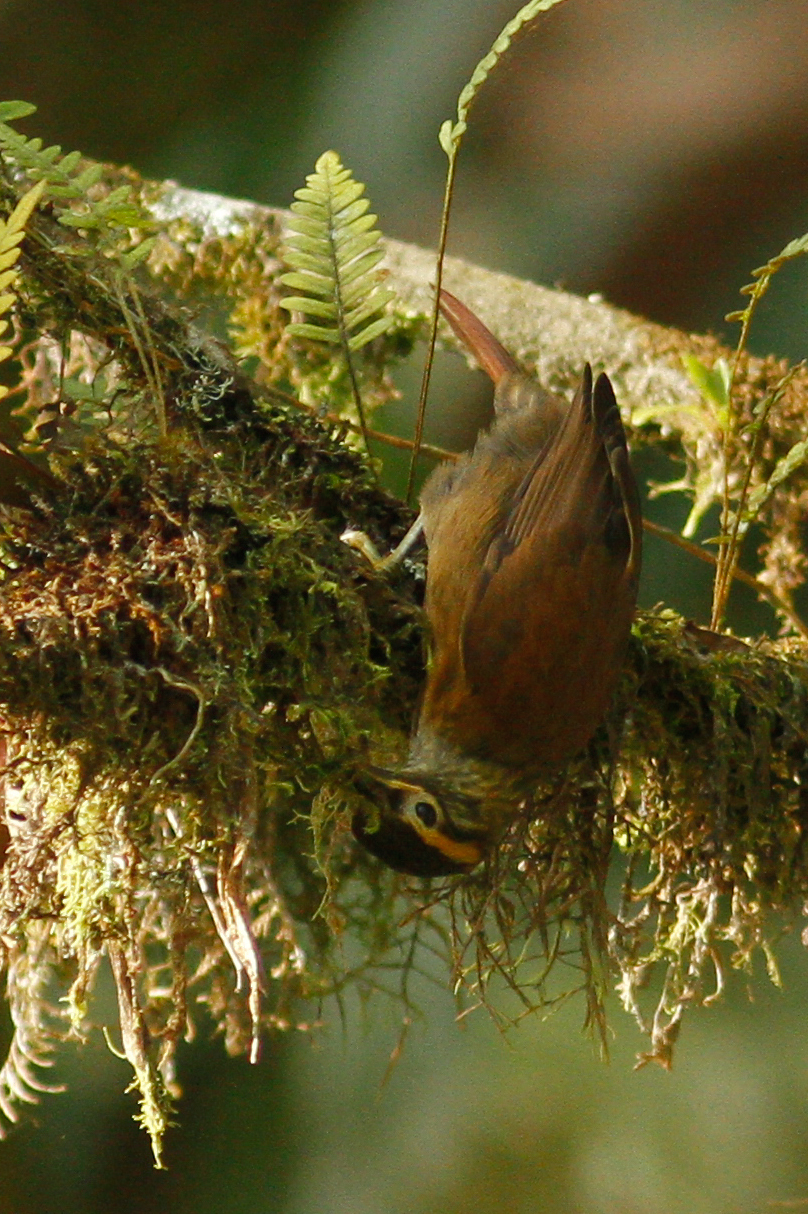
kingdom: Animalia
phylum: Chordata
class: Aves
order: Passeriformes
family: Furnariidae
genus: Anabacerthia
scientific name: Anabacerthia variegaticeps
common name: Scaly-throated foliage-gleaner
